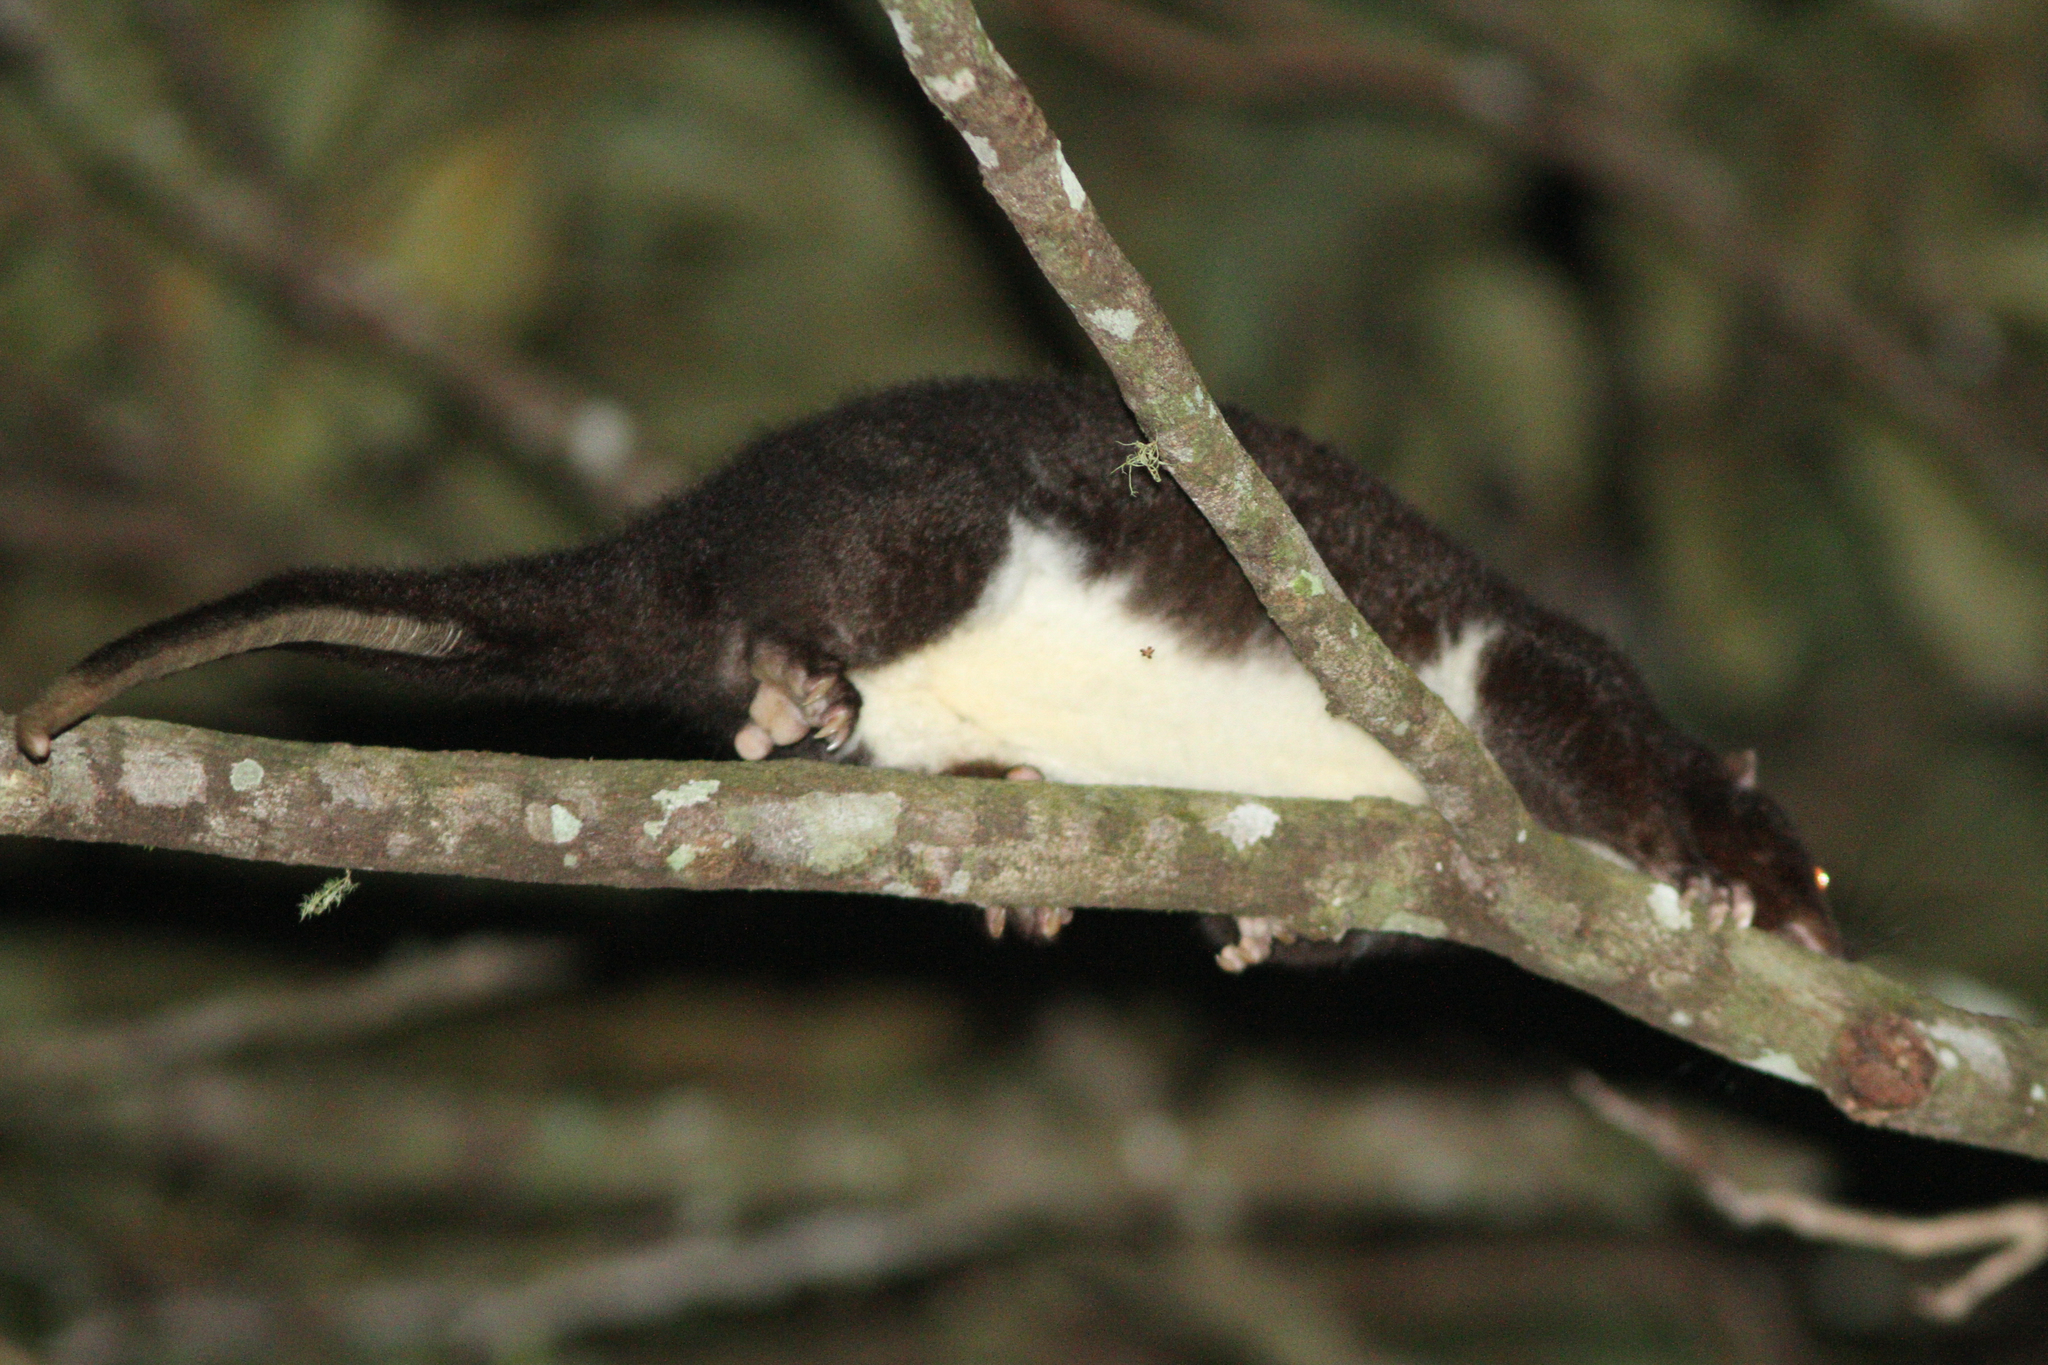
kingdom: Animalia
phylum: Chordata
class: Mammalia
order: Diprotodontia
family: Pseudocheiridae
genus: Pseudochirulus
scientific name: Pseudochirulus herbertensis
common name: Herbert river ringtail
